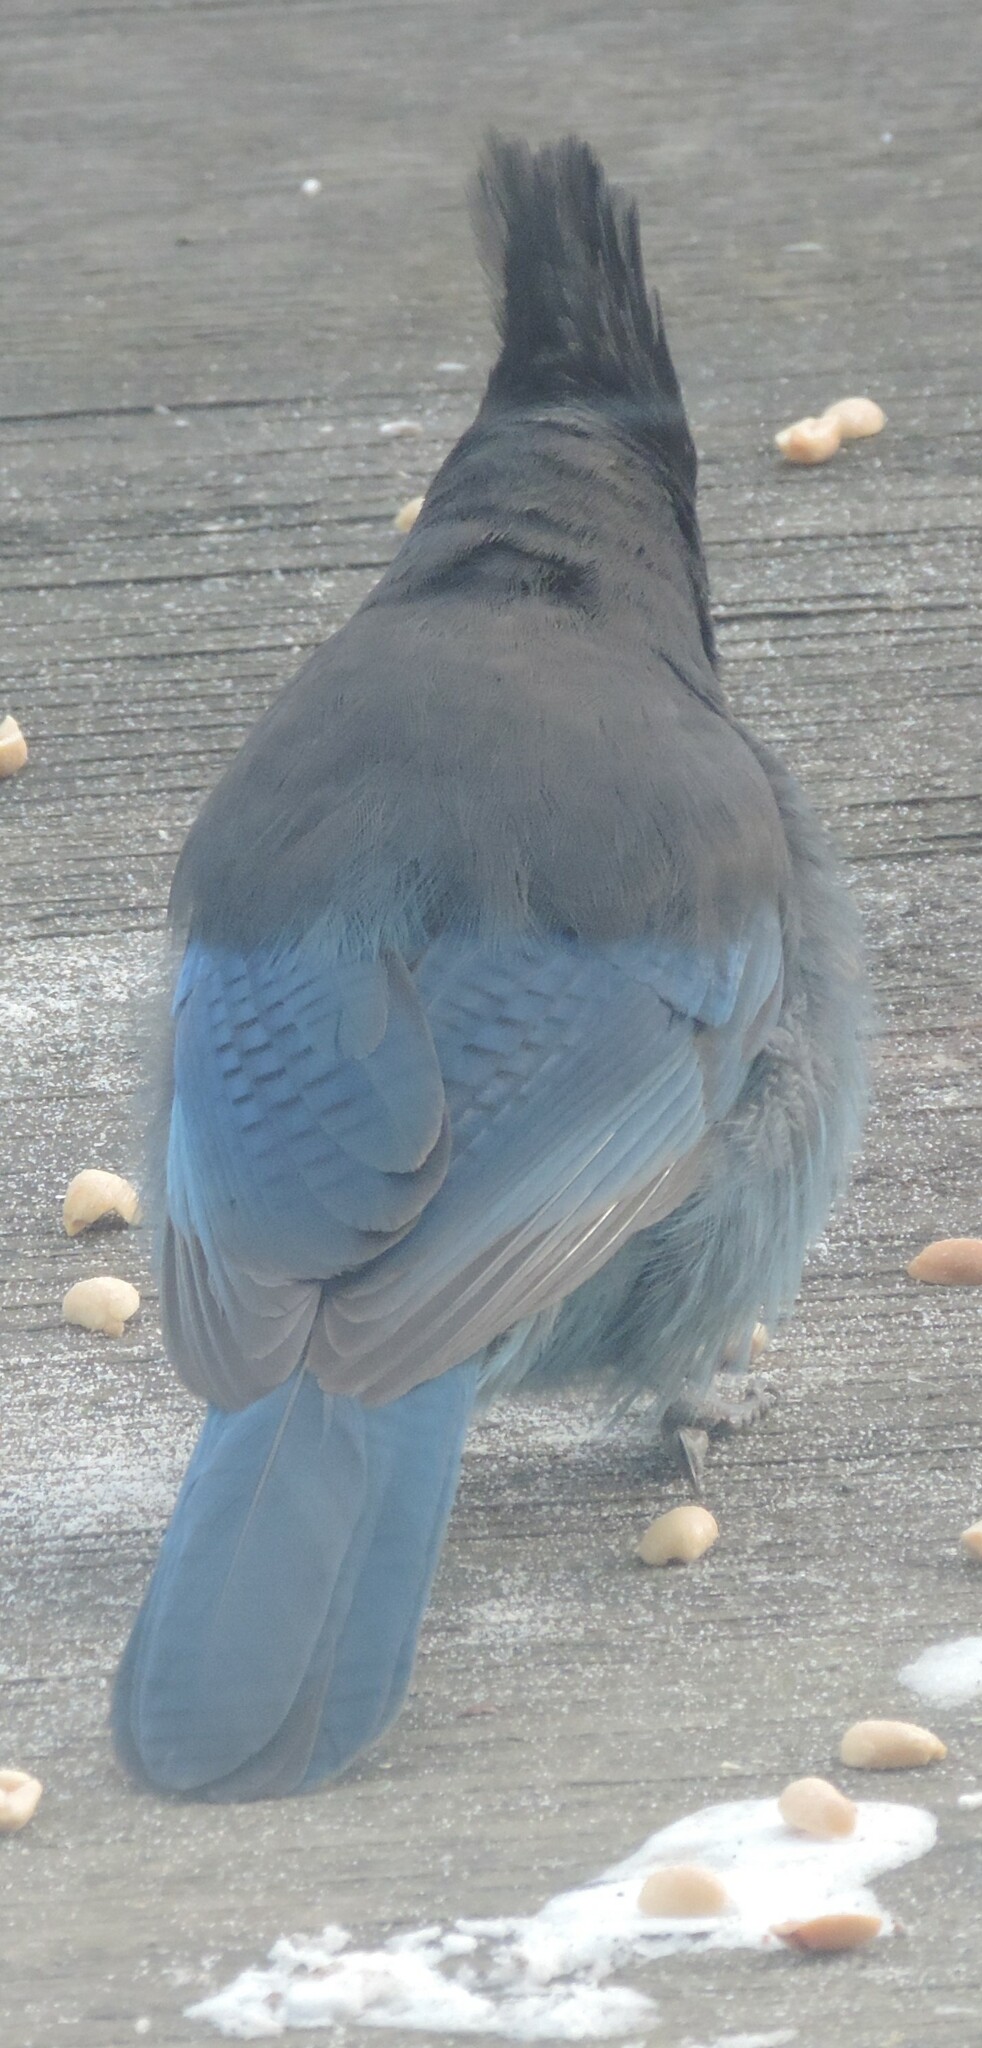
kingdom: Animalia
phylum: Chordata
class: Aves
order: Passeriformes
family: Corvidae
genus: Cyanocitta
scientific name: Cyanocitta stelleri
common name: Steller's jay
